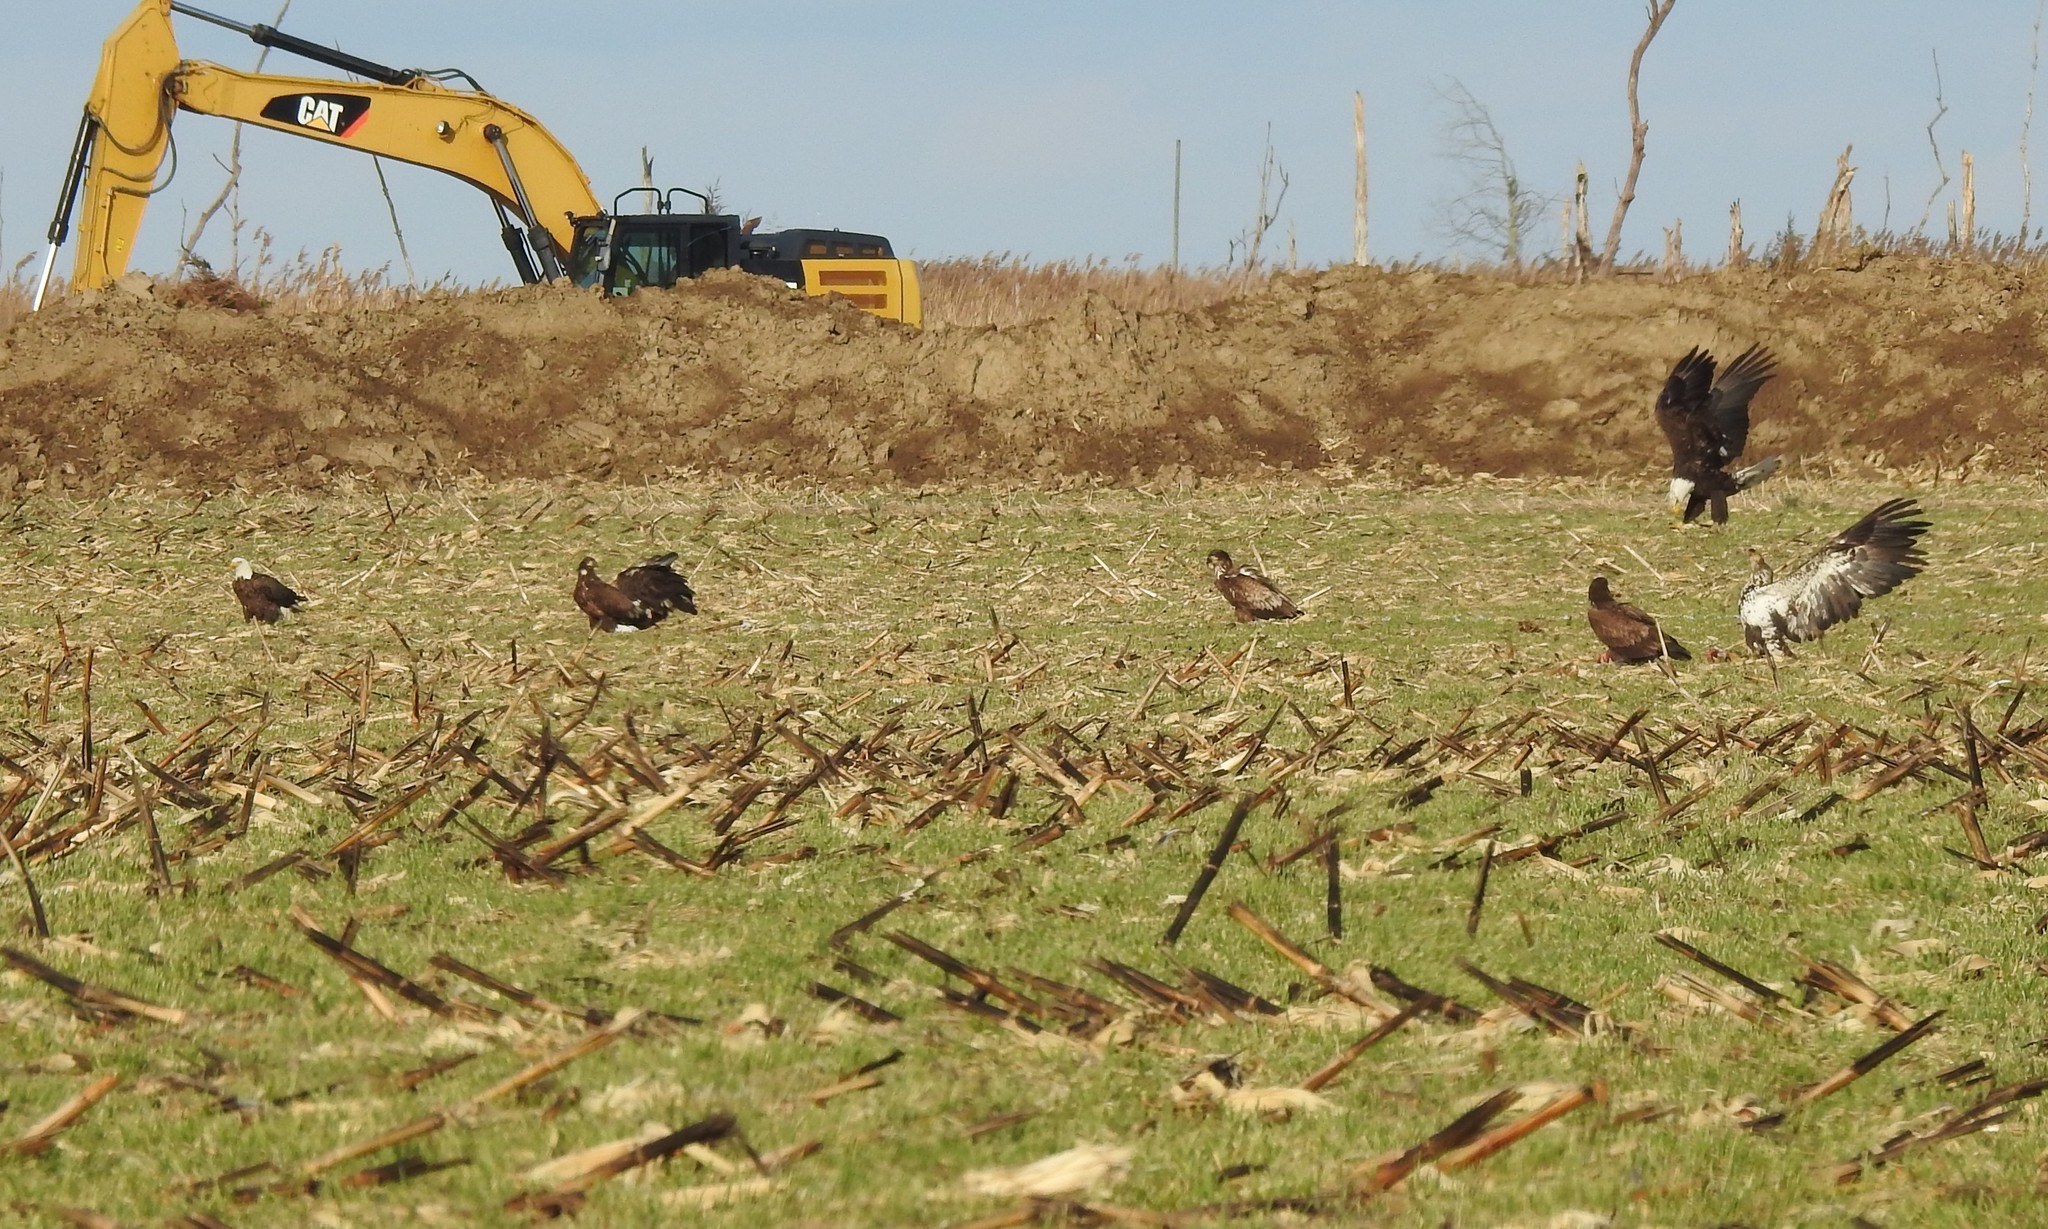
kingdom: Animalia
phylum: Chordata
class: Aves
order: Accipitriformes
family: Accipitridae
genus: Haliaeetus
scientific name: Haliaeetus leucocephalus
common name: Bald eagle
